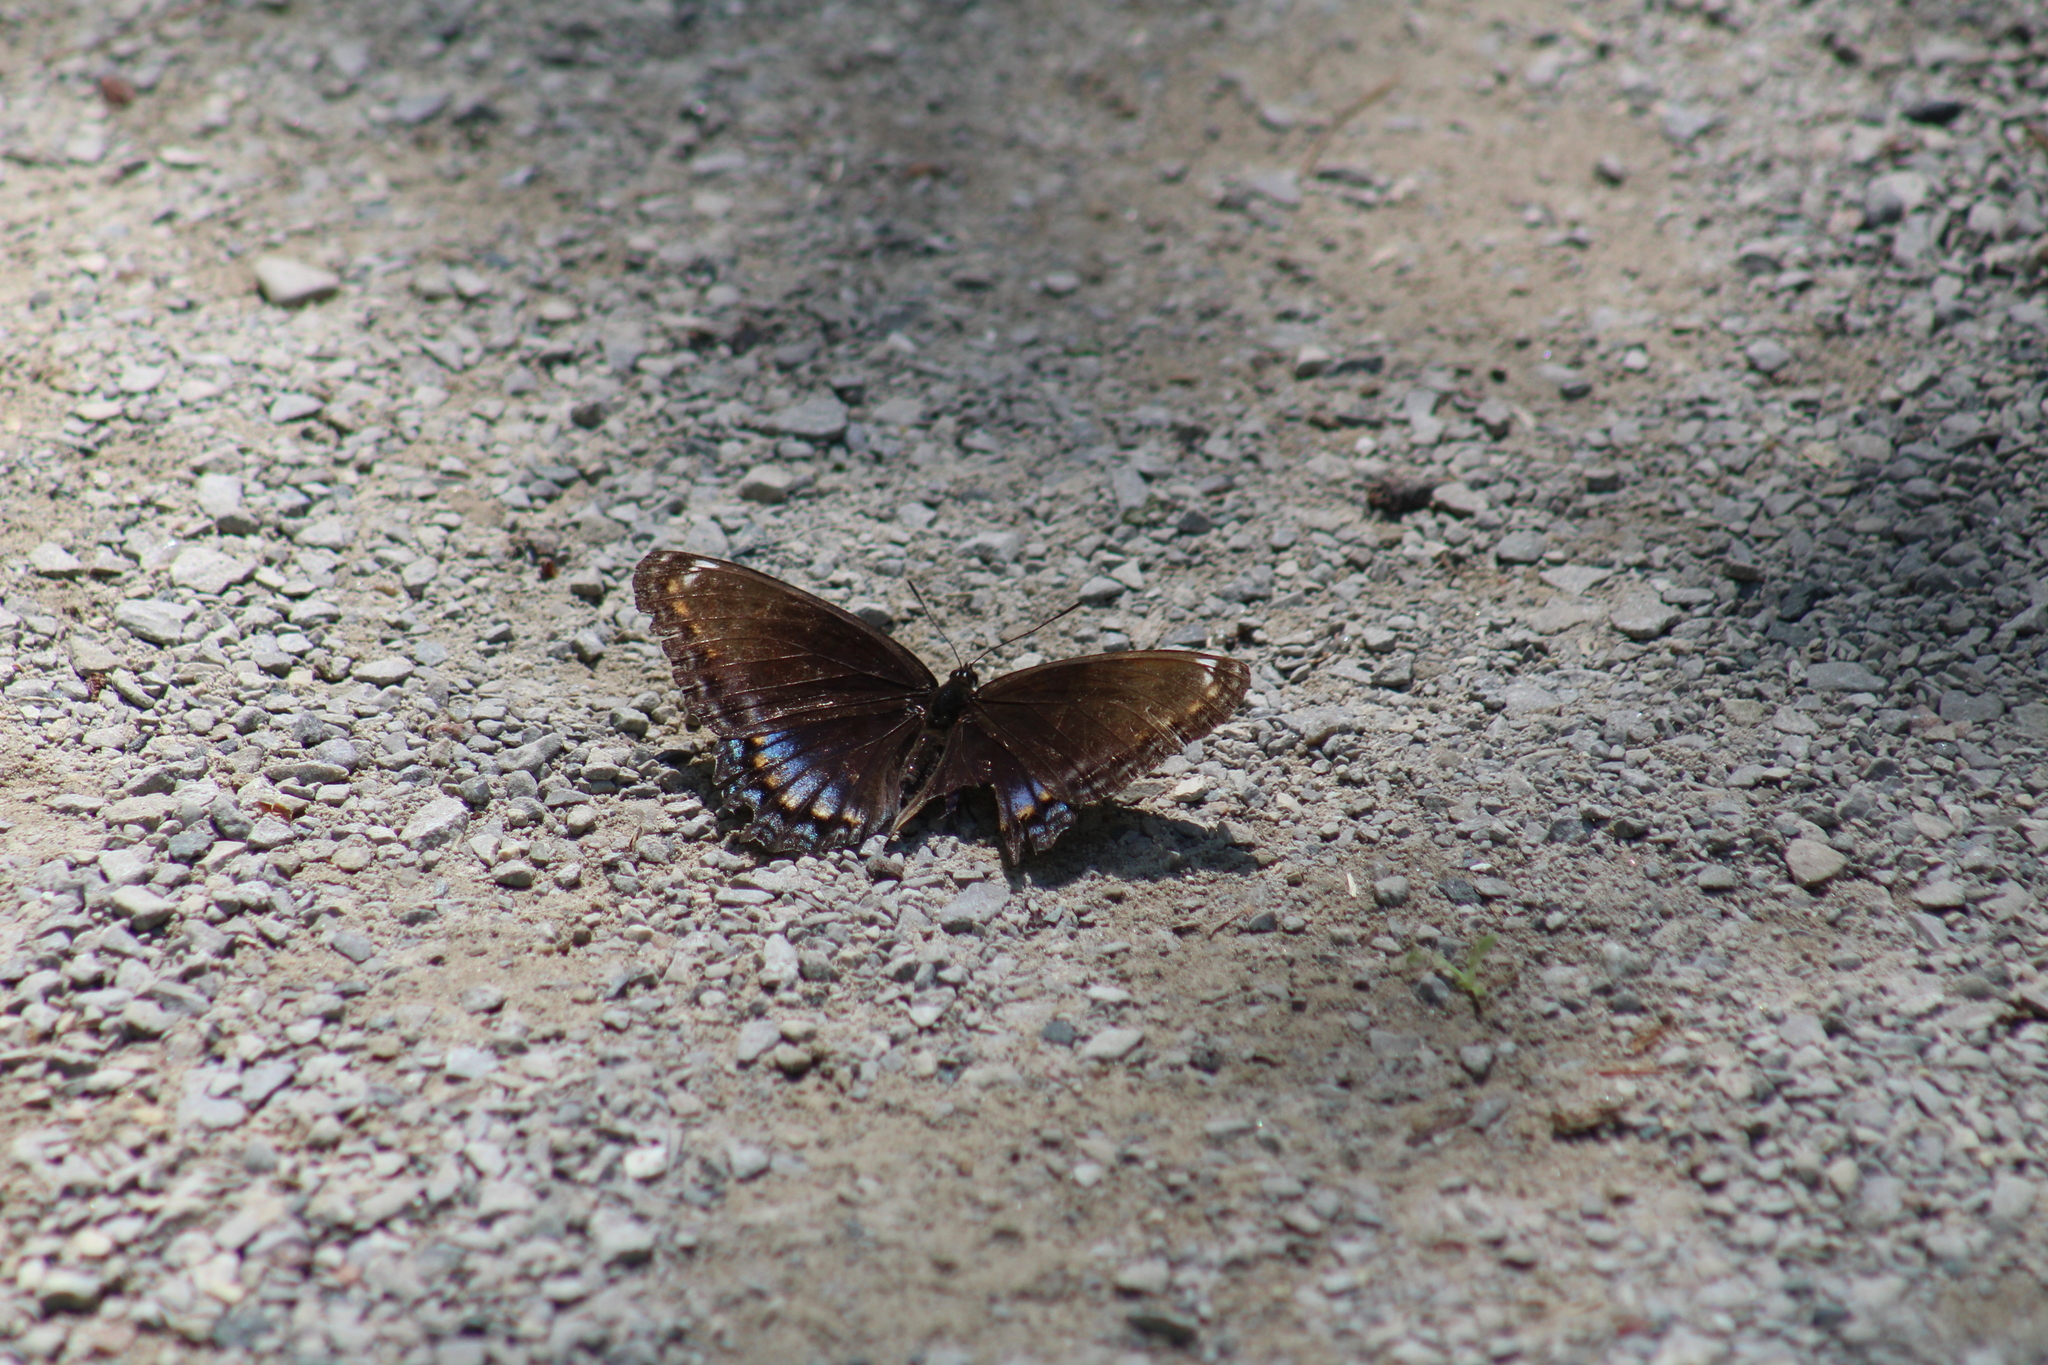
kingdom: Animalia
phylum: Arthropoda
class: Insecta
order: Lepidoptera
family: Nymphalidae
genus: Limenitis
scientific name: Limenitis astyanax
